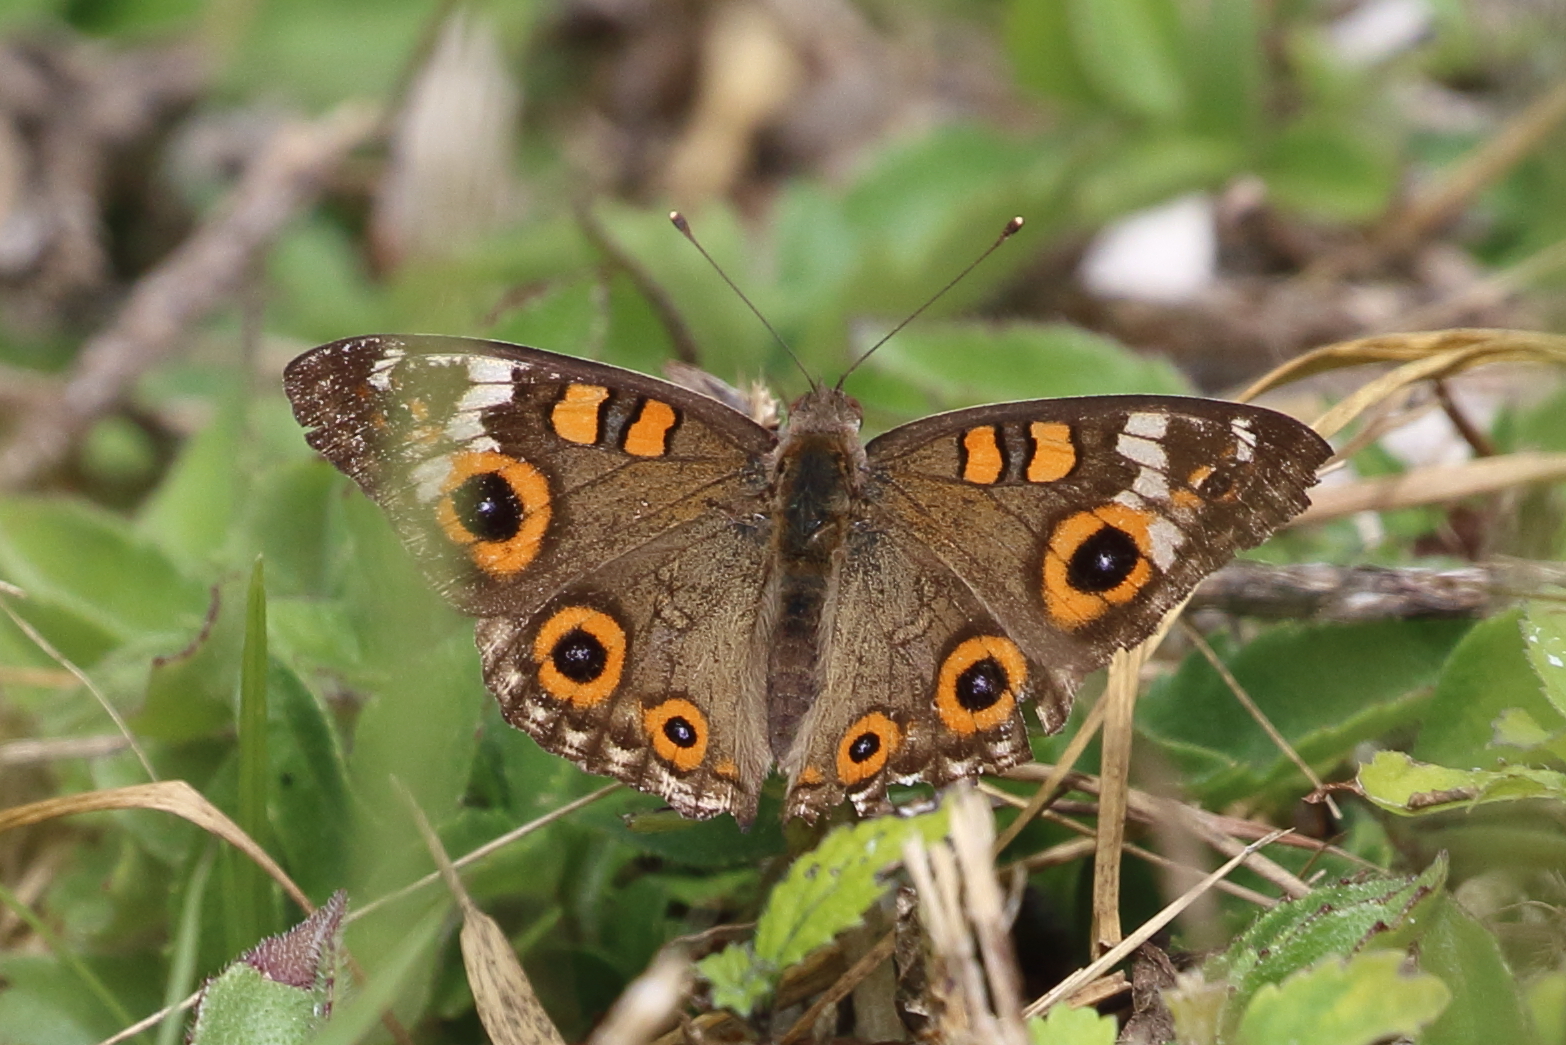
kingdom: Animalia
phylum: Arthropoda
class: Insecta
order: Lepidoptera
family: Nymphalidae
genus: Junonia
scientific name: Junonia villida
